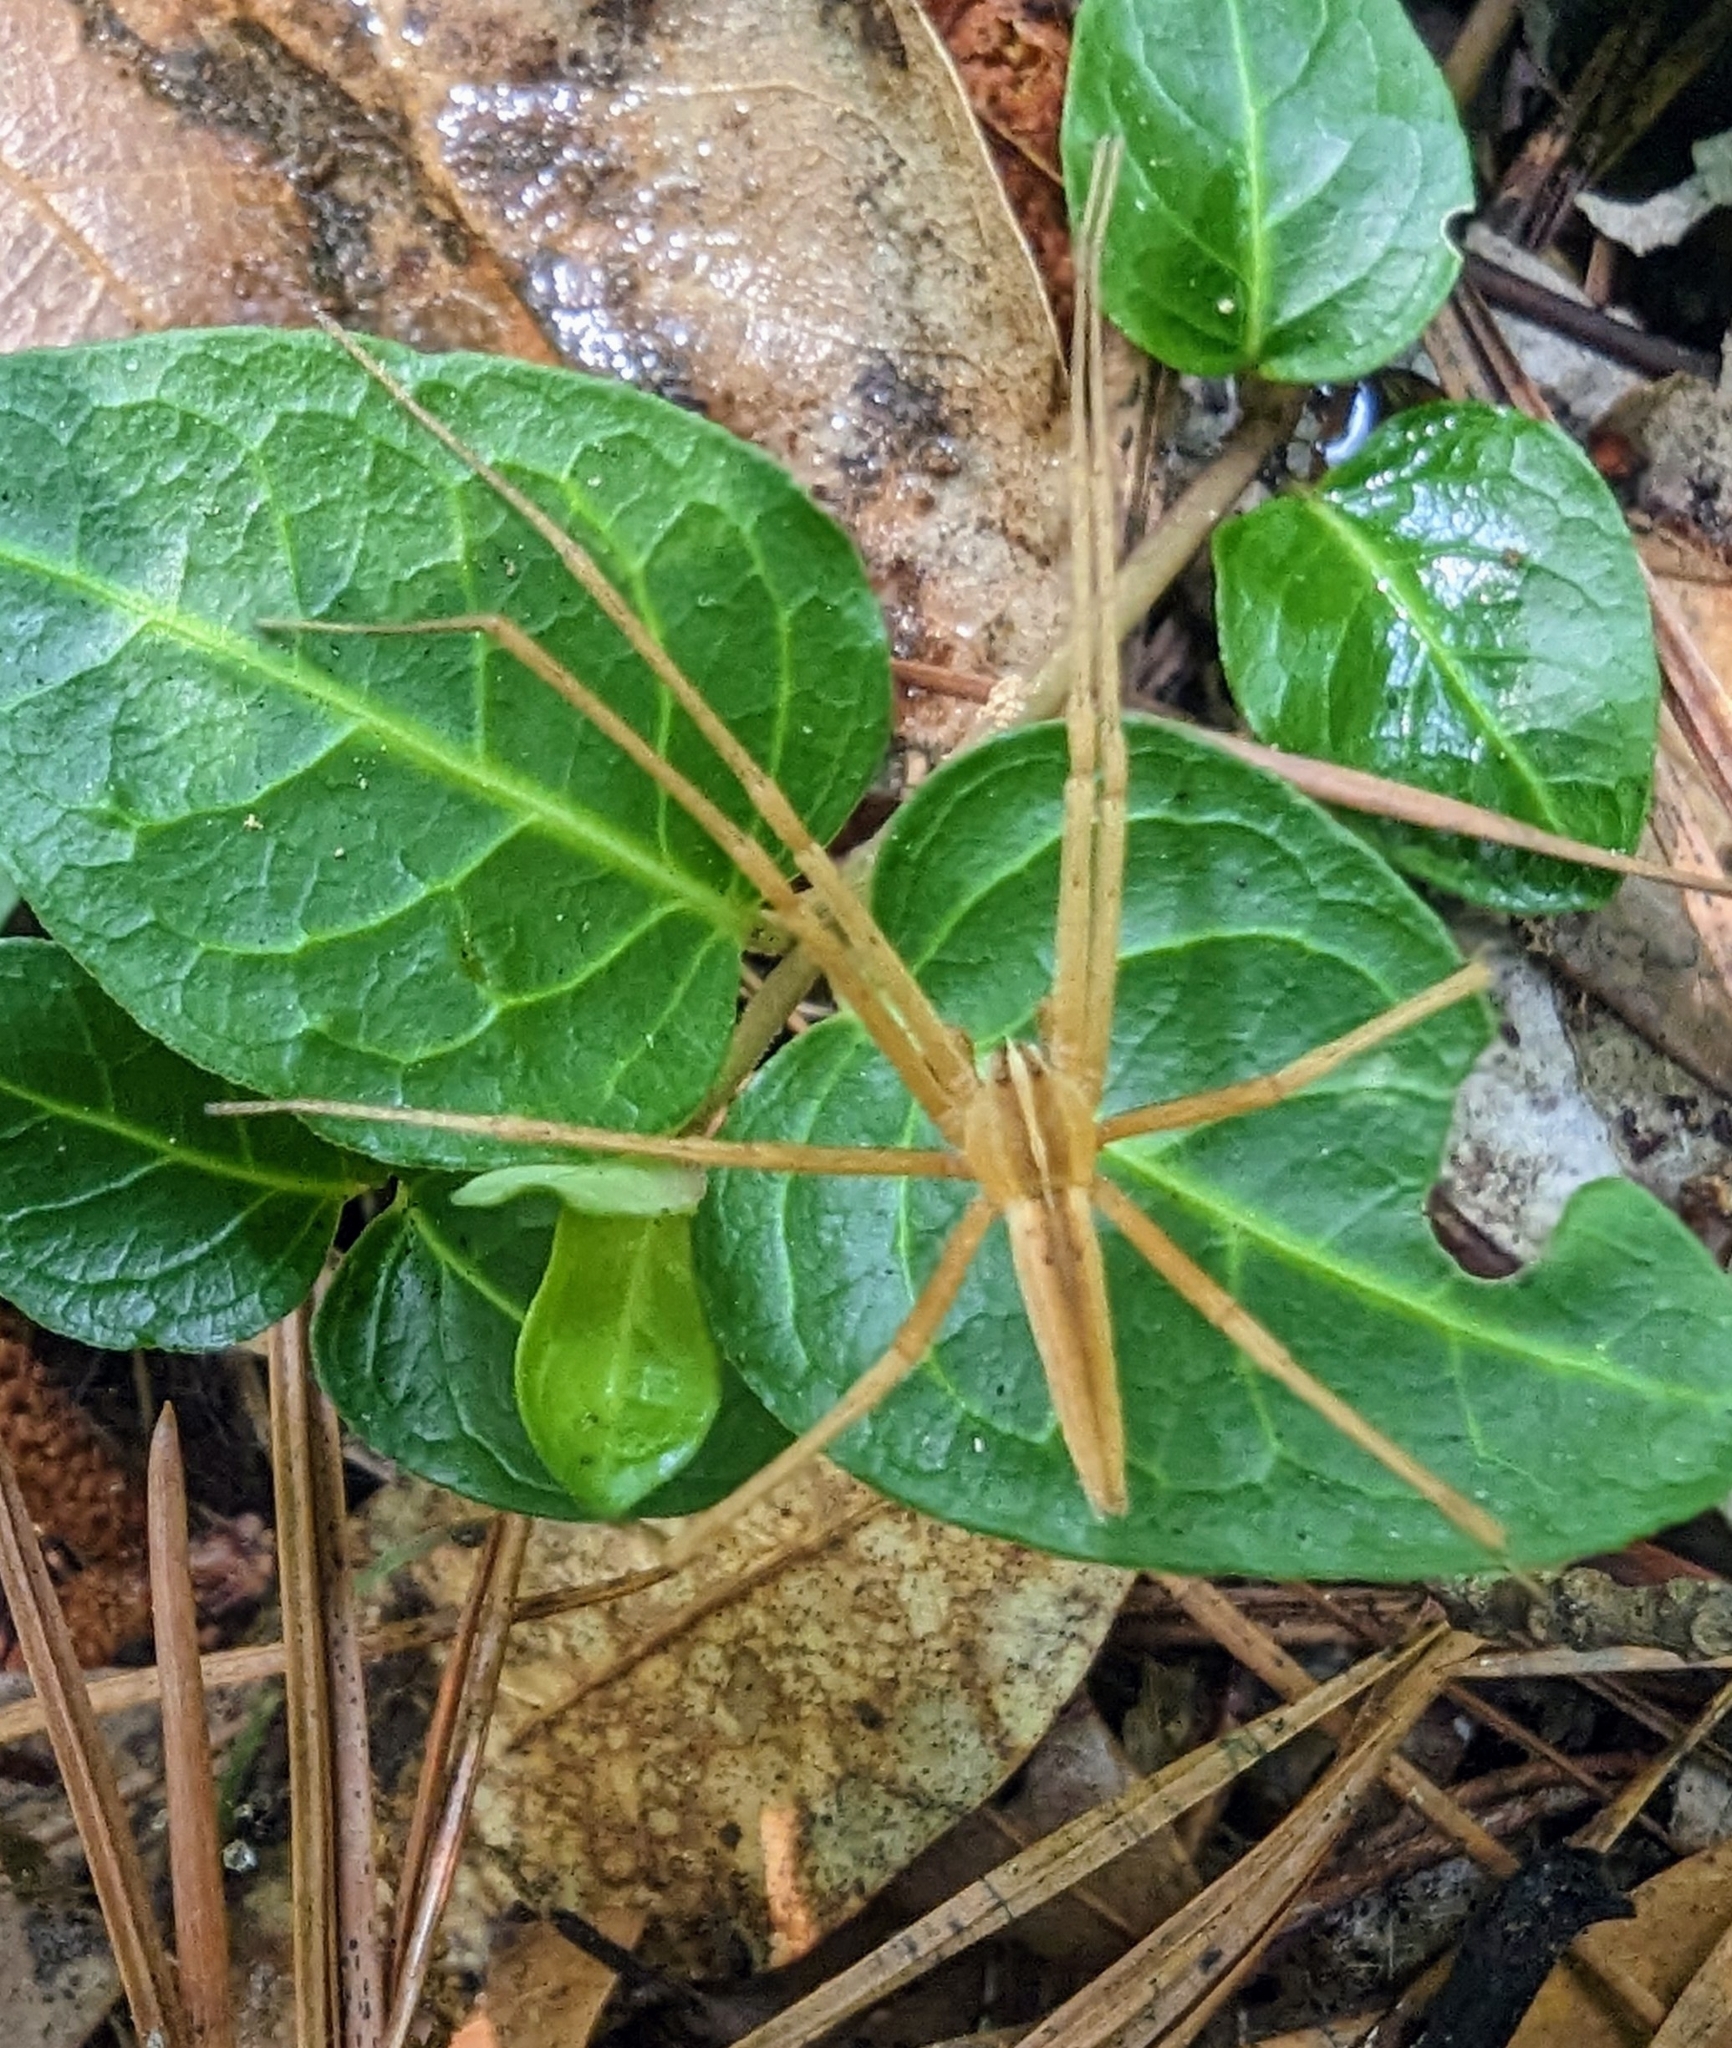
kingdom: Animalia
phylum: Arthropoda
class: Arachnida
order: Araneae
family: Pisauridae
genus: Pisaurina
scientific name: Pisaurina dubia
